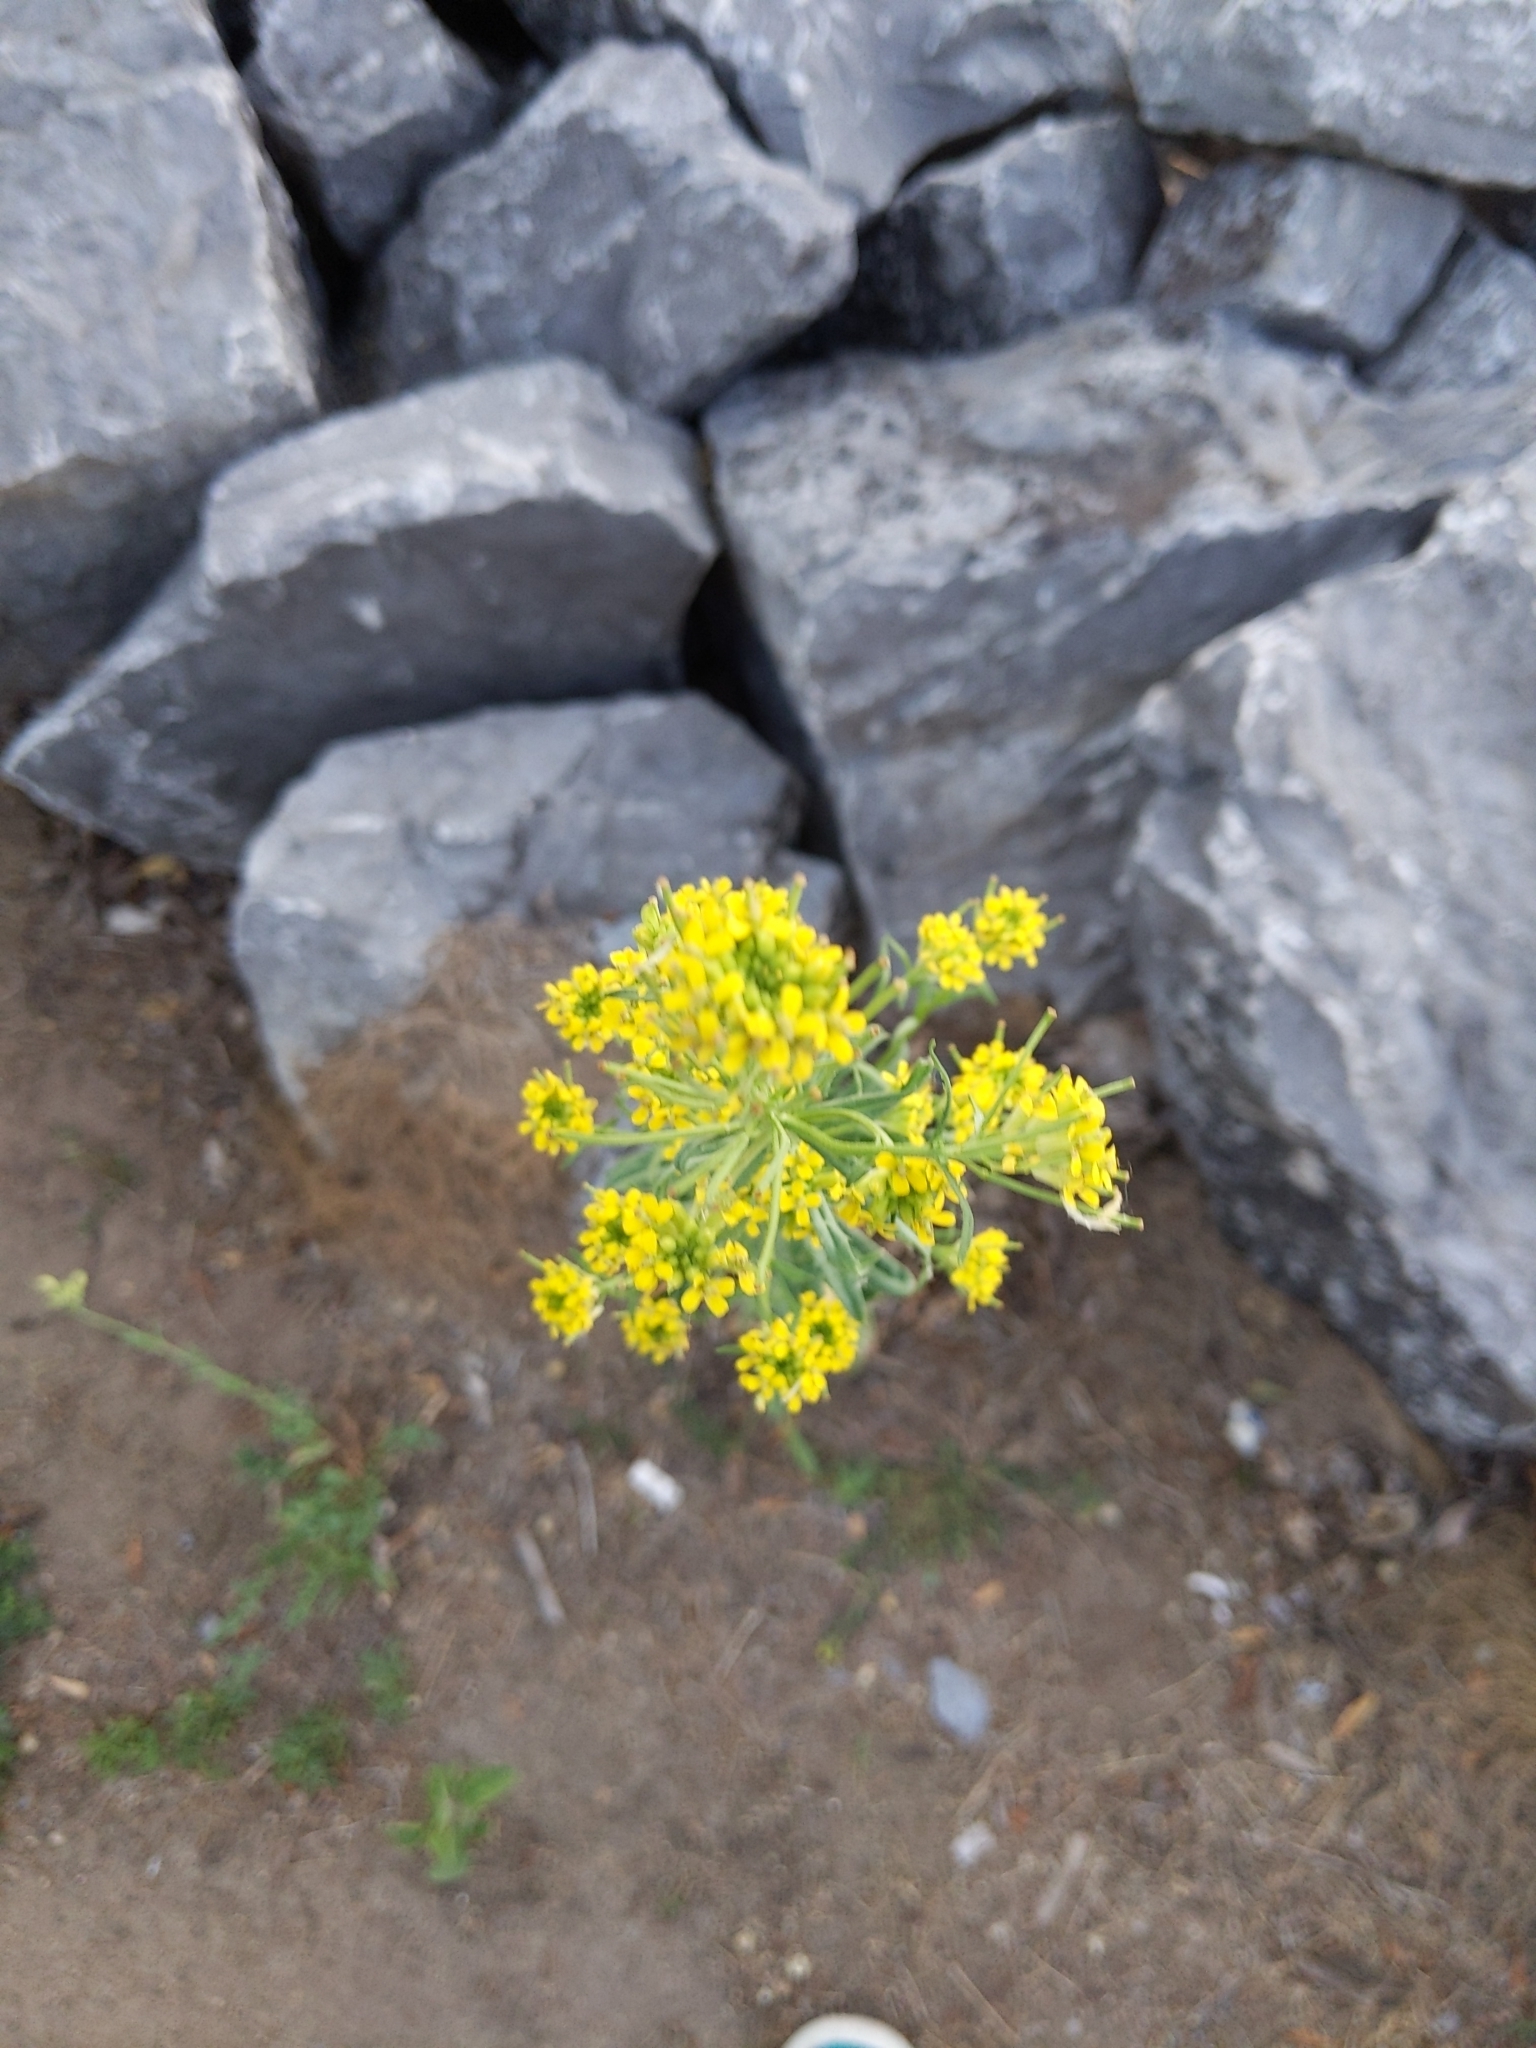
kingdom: Plantae
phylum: Tracheophyta
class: Magnoliopsida
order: Brassicales
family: Brassicaceae
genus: Barbarea
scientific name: Barbarea vulgaris
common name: Cressy-greens
